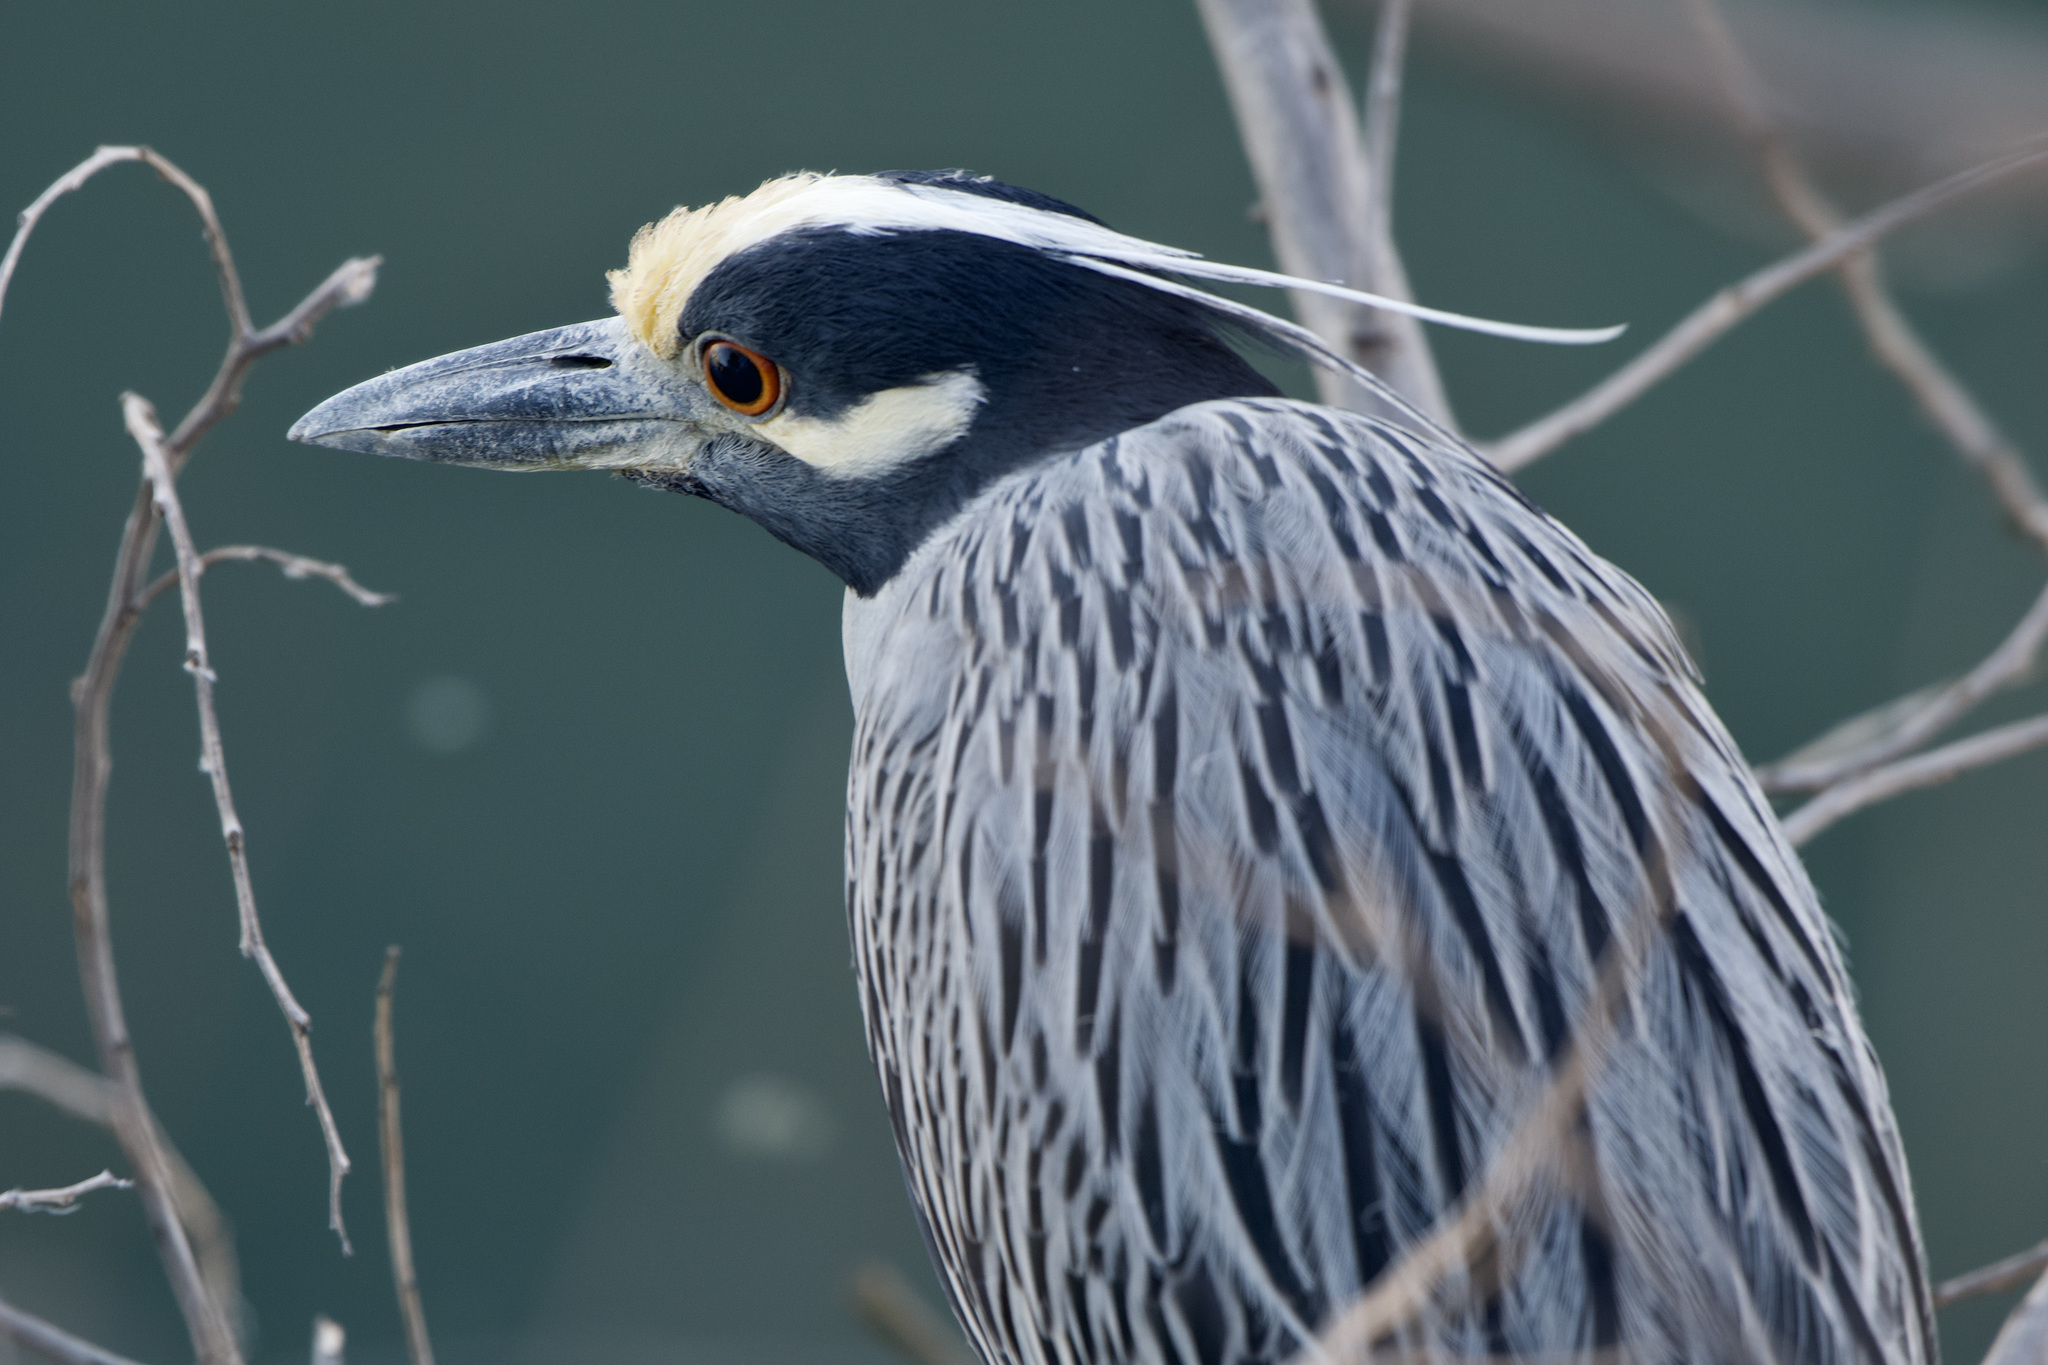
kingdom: Animalia
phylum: Chordata
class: Aves
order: Pelecaniformes
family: Ardeidae
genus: Nyctanassa
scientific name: Nyctanassa violacea
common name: Yellow-crowned night heron
